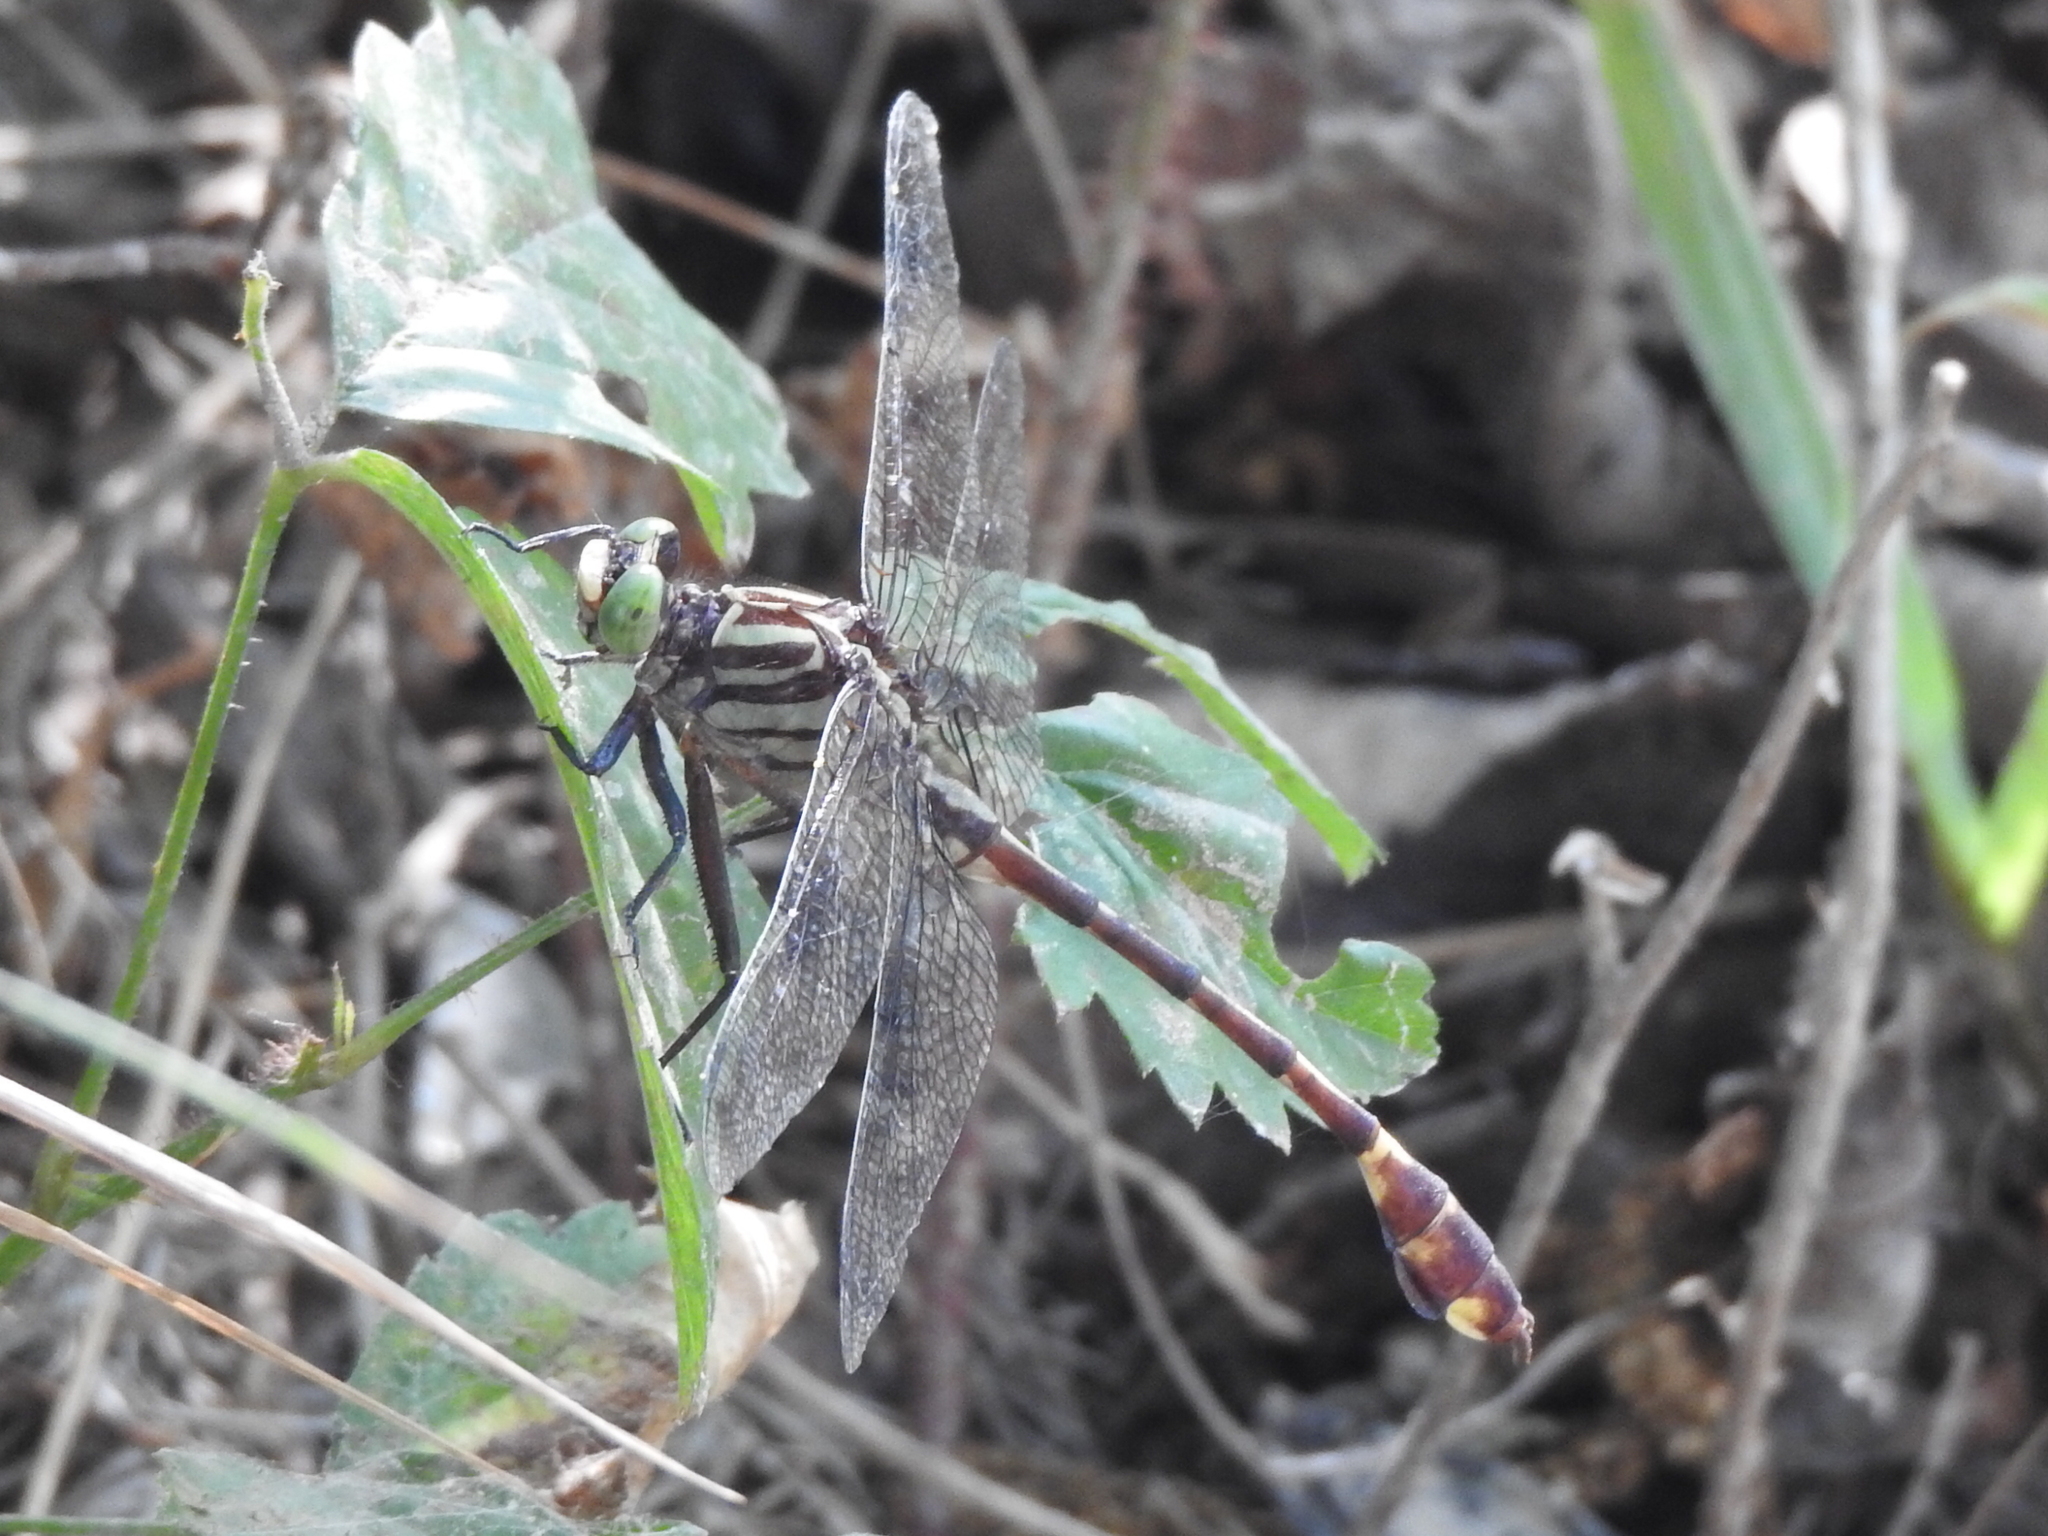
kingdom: Animalia
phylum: Arthropoda
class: Insecta
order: Odonata
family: Gomphidae
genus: Gomphurus
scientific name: Gomphurus vastus
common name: Cobra clubtail
